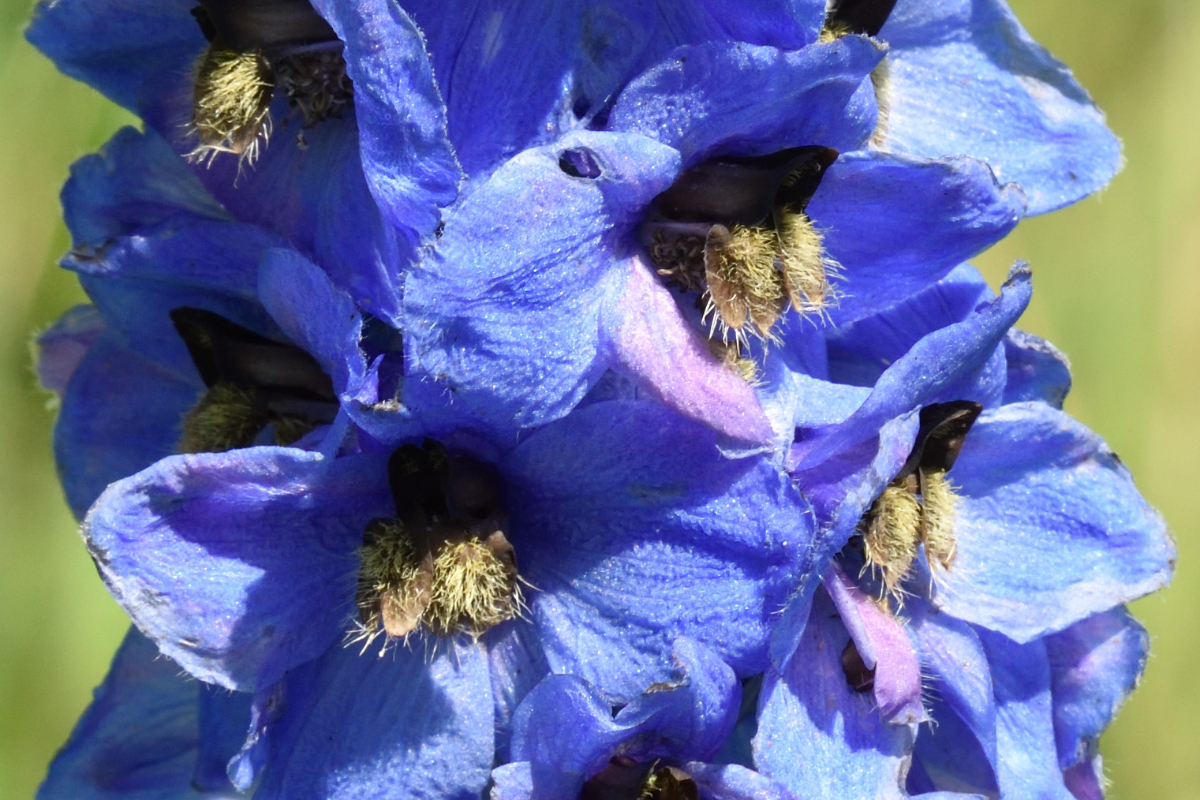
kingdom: Plantae
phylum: Tracheophyta
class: Magnoliopsida
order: Ranunculales
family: Ranunculaceae
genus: Delphinium
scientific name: Delphinium cultorum
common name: Garden delphinium
